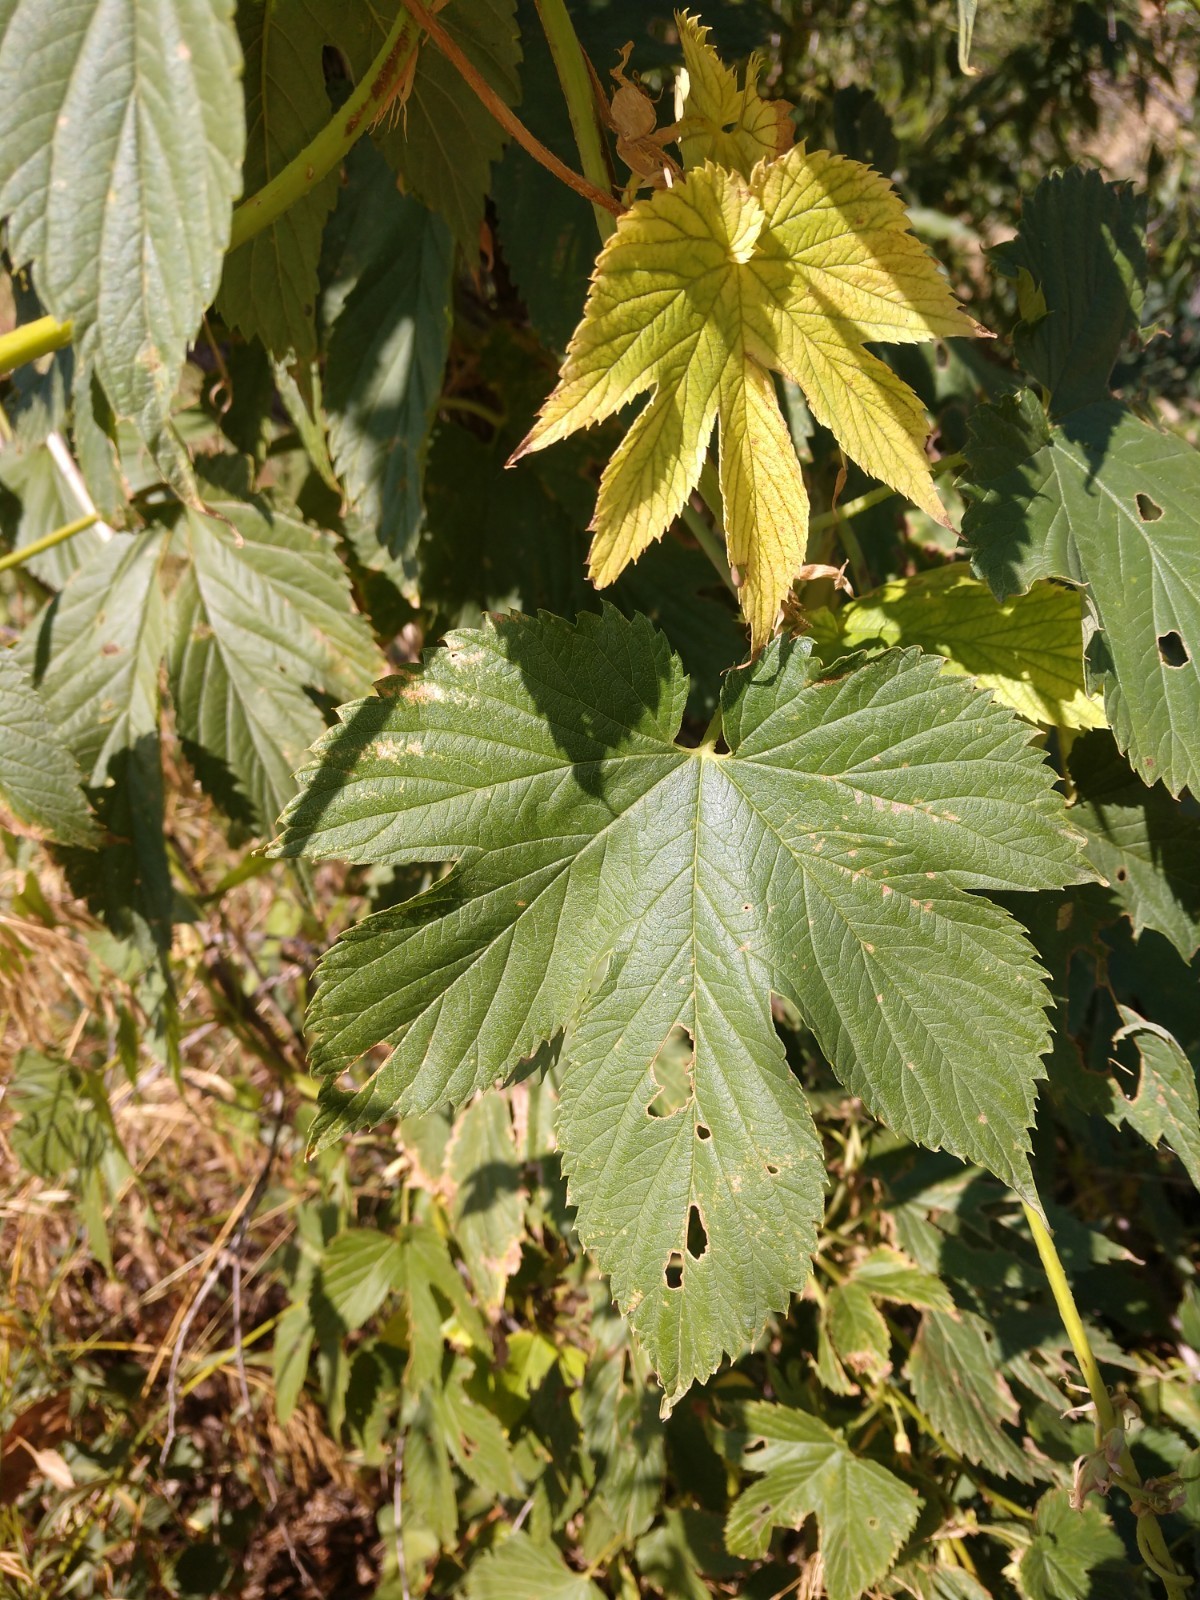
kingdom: Plantae
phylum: Tracheophyta
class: Magnoliopsida
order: Rosales
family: Cannabaceae
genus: Humulus
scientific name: Humulus lupulus
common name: Hop
